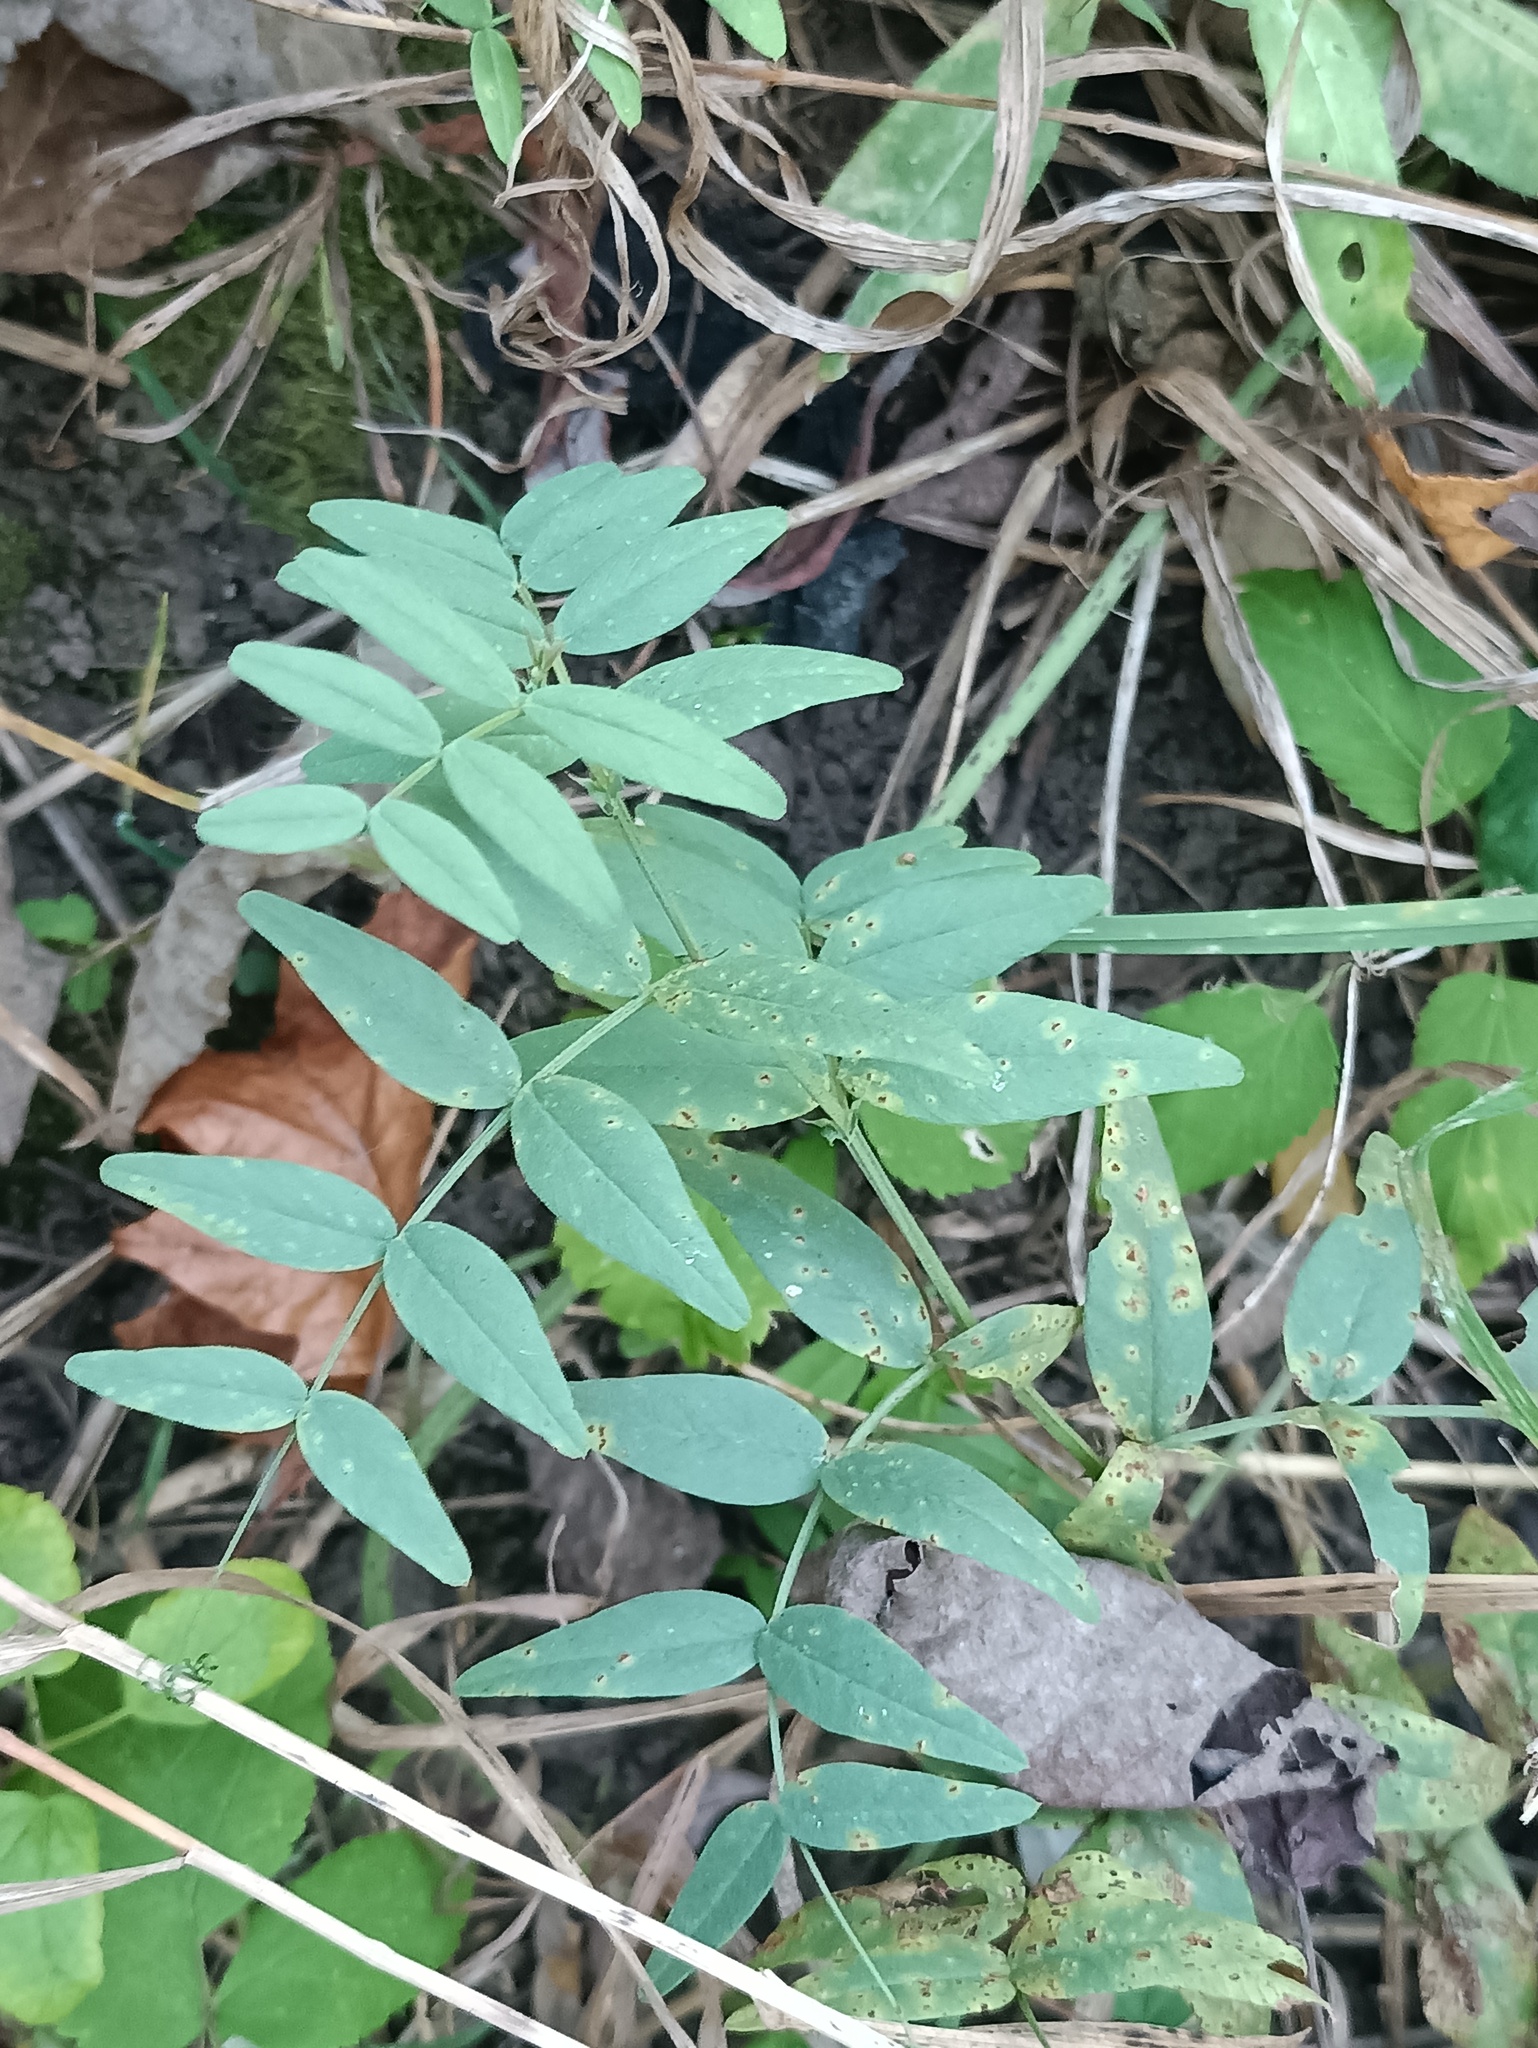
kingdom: Plantae
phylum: Tracheophyta
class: Magnoliopsida
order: Fabales
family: Fabaceae
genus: Vicia
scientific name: Vicia sepium
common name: Bush vetch
